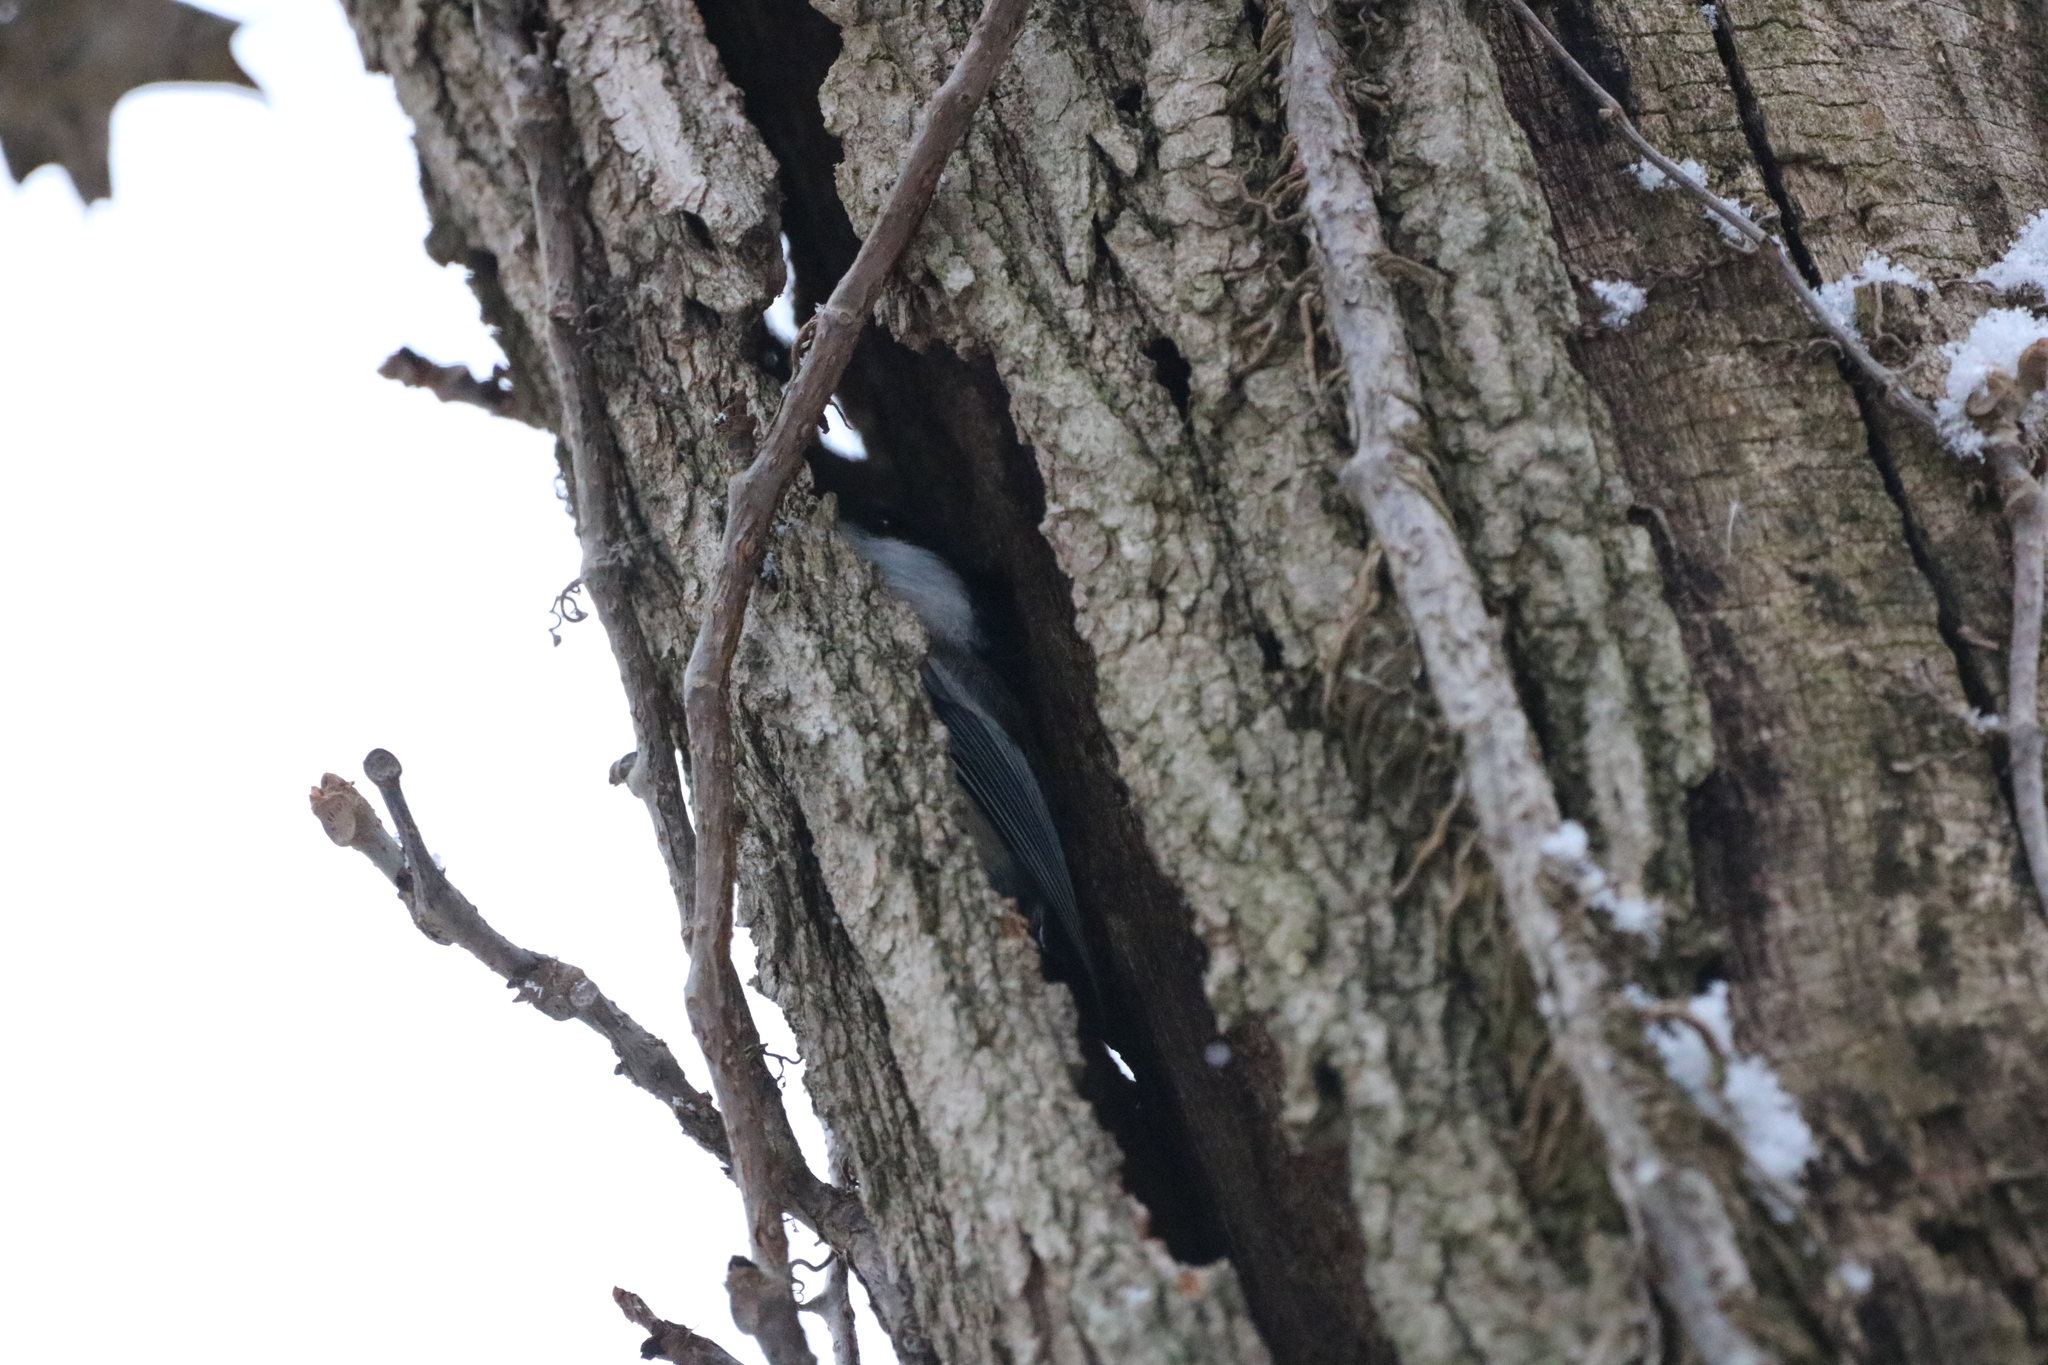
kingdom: Animalia
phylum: Chordata
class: Aves
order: Passeriformes
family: Paridae
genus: Poecile
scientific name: Poecile atricapillus
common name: Black-capped chickadee
